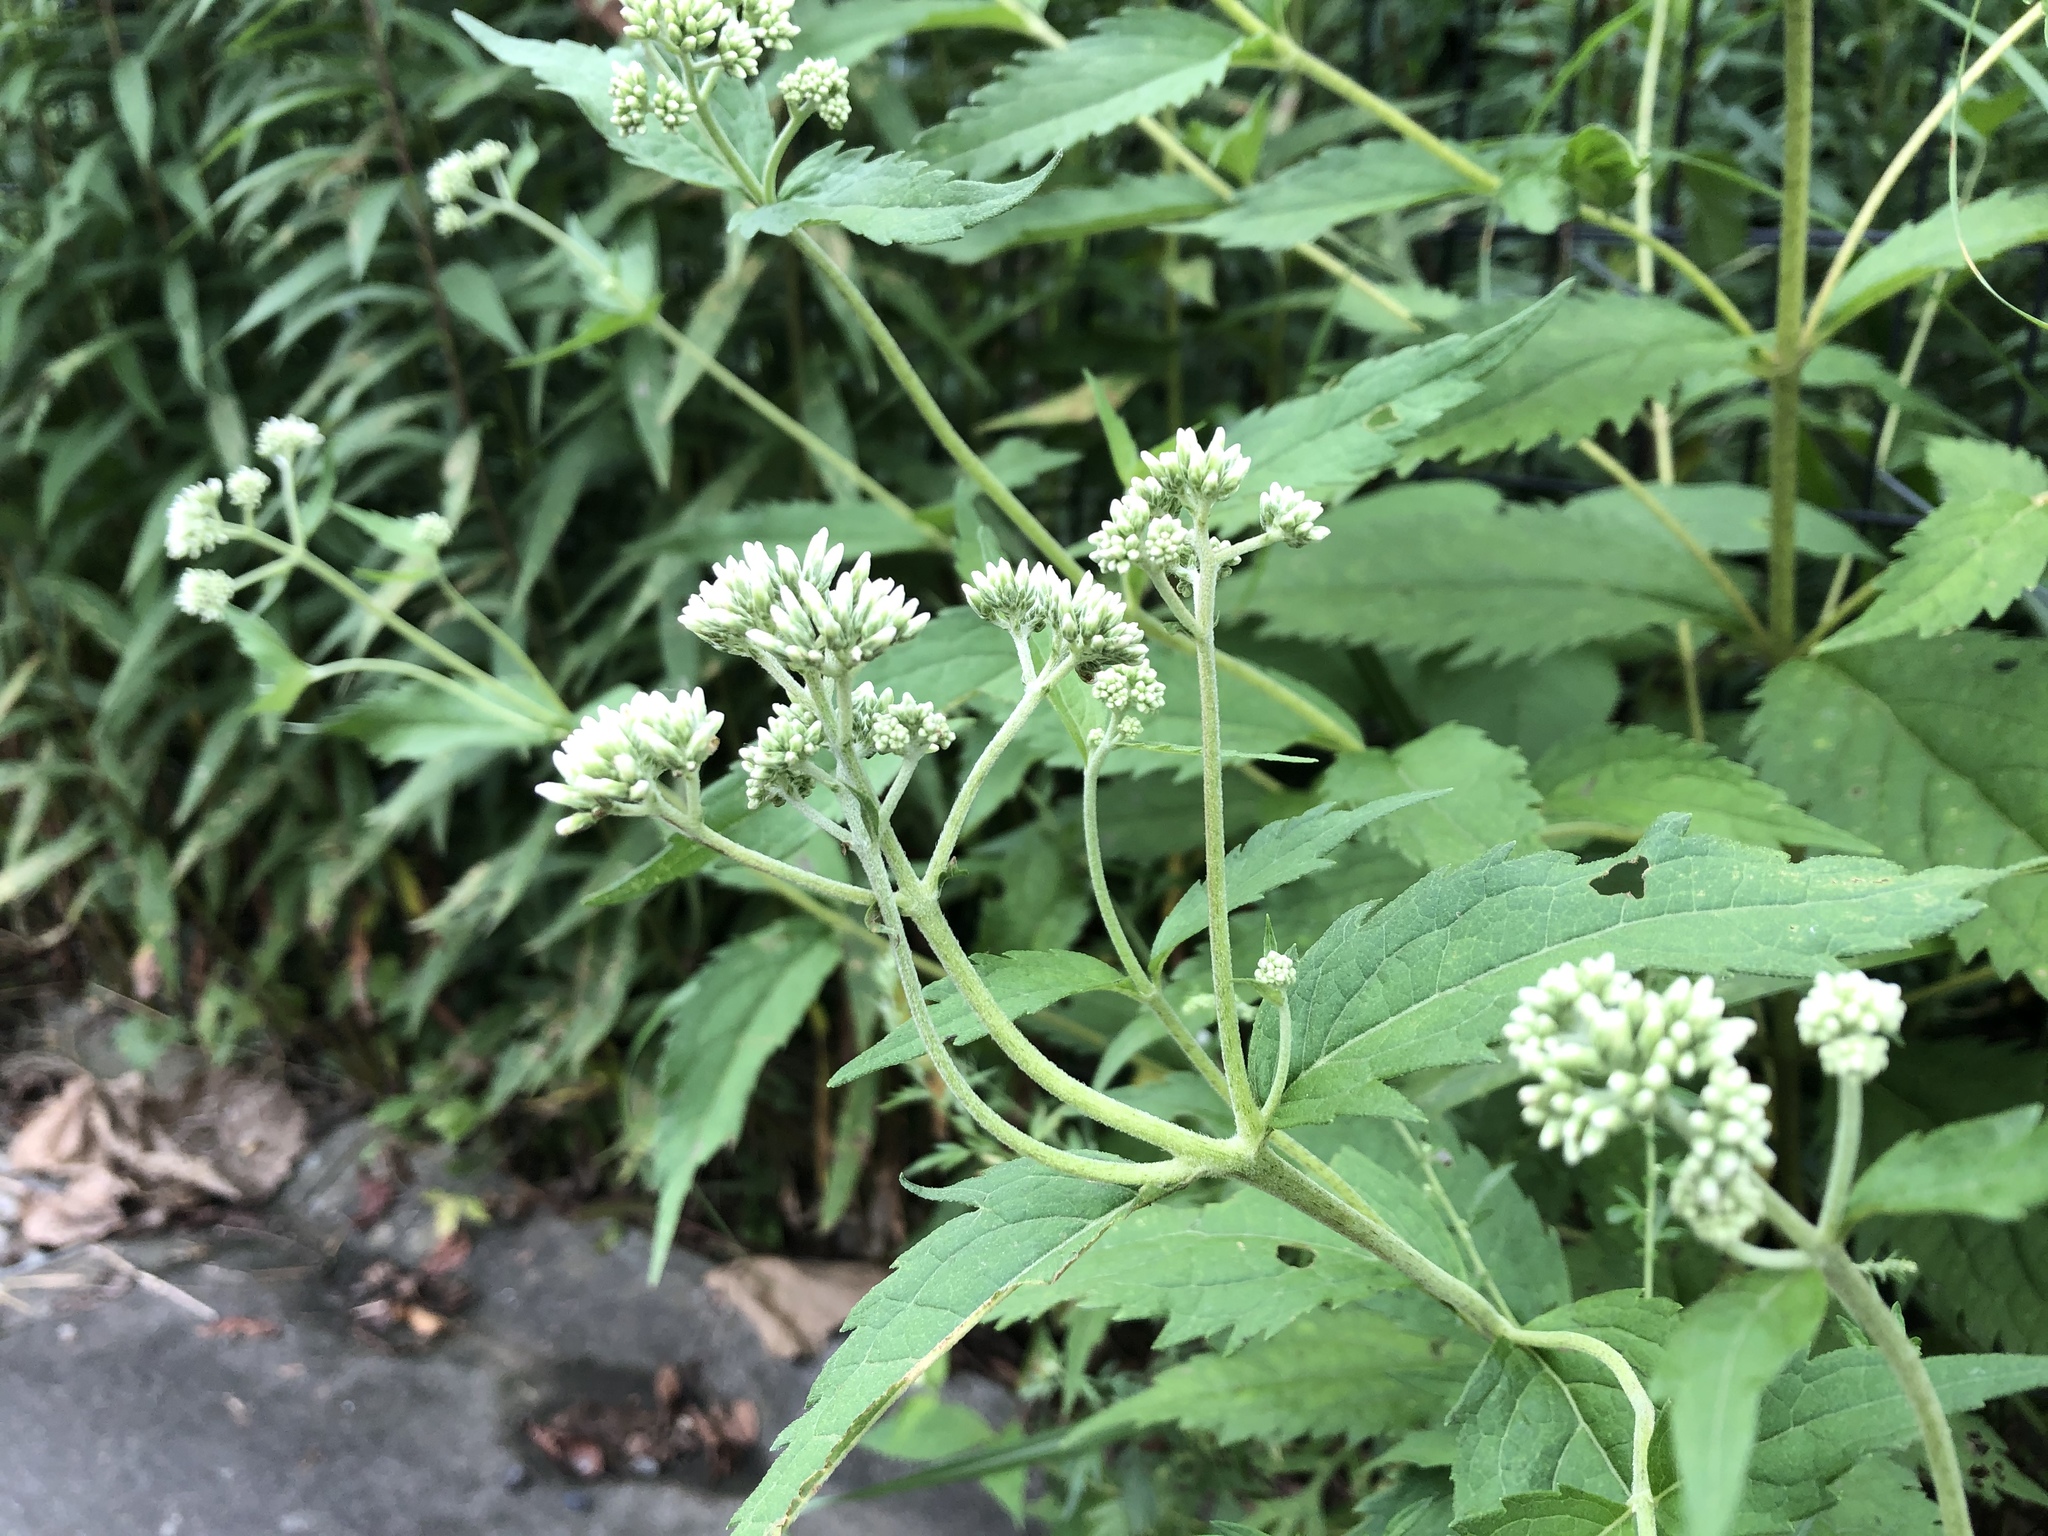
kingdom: Plantae
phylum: Tracheophyta
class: Magnoliopsida
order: Asterales
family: Asteraceae
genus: Eupatorium
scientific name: Eupatorium chinense
